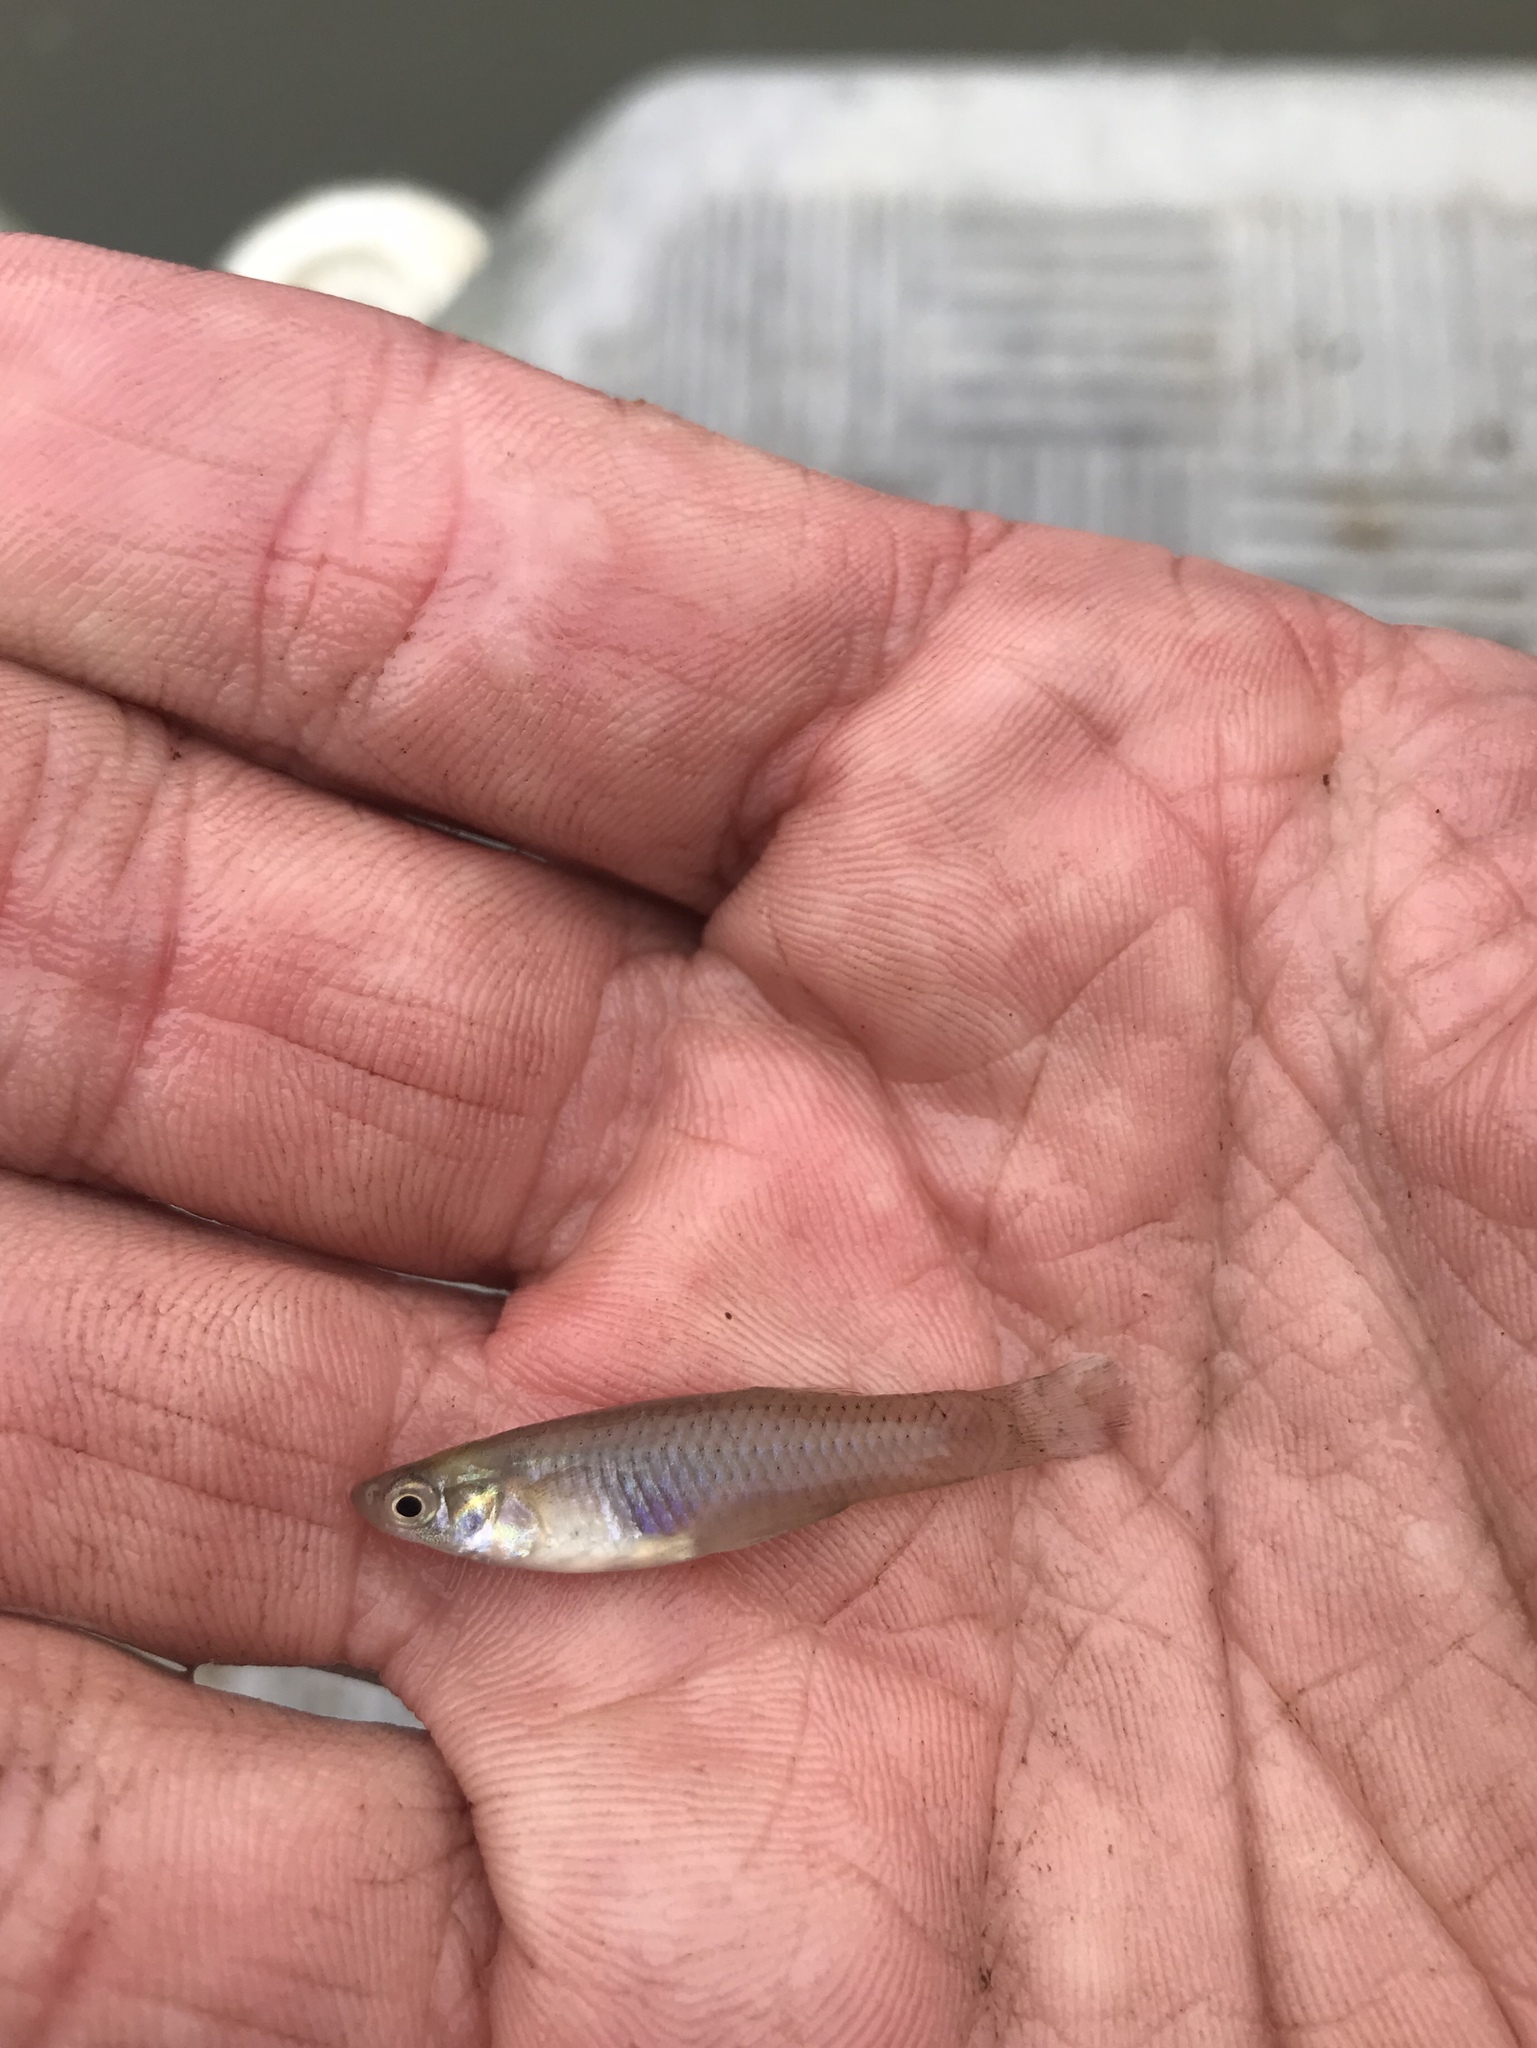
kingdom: Animalia
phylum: Chordata
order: Cyprinodontiformes
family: Poeciliidae
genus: Gambusia
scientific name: Gambusia affinis
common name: Mosquitofish
